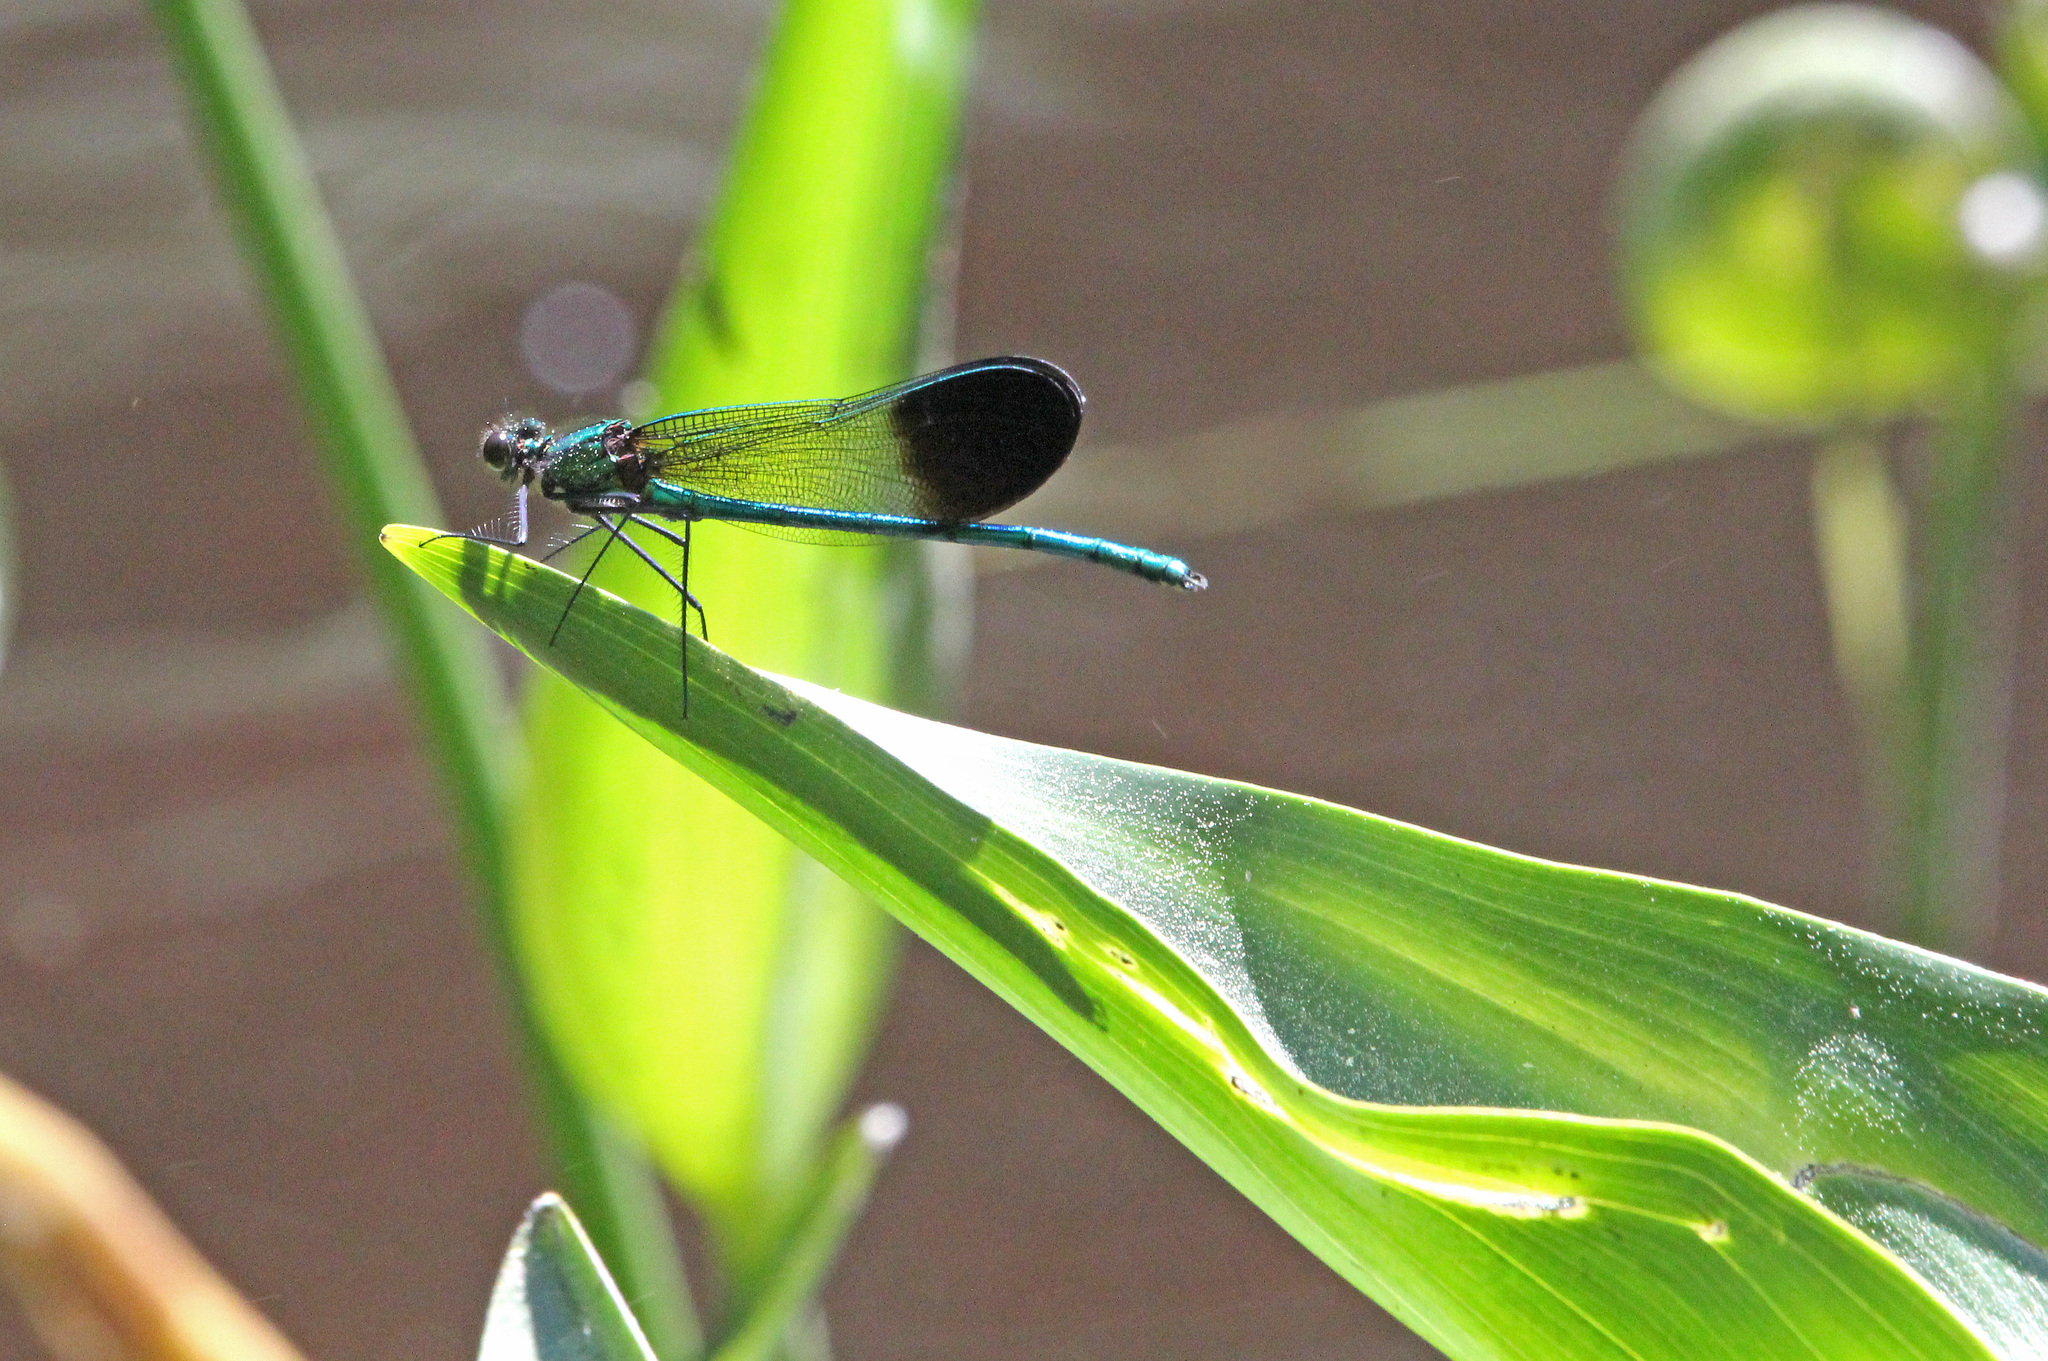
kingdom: Animalia
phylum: Arthropoda
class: Insecta
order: Odonata
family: Calopterygidae
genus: Calopteryx
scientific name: Calopteryx aequabilis
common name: River jewelwing
